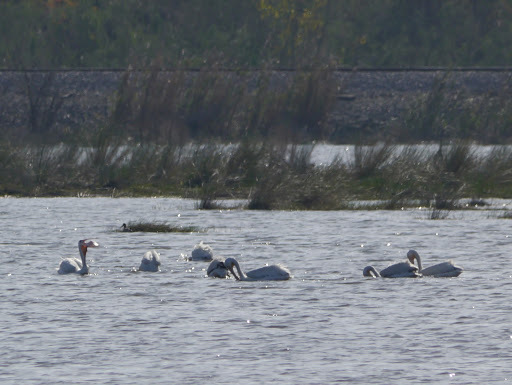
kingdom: Animalia
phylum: Chordata
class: Aves
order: Pelecaniformes
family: Pelecanidae
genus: Pelecanus
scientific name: Pelecanus erythrorhynchos
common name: American white pelican
